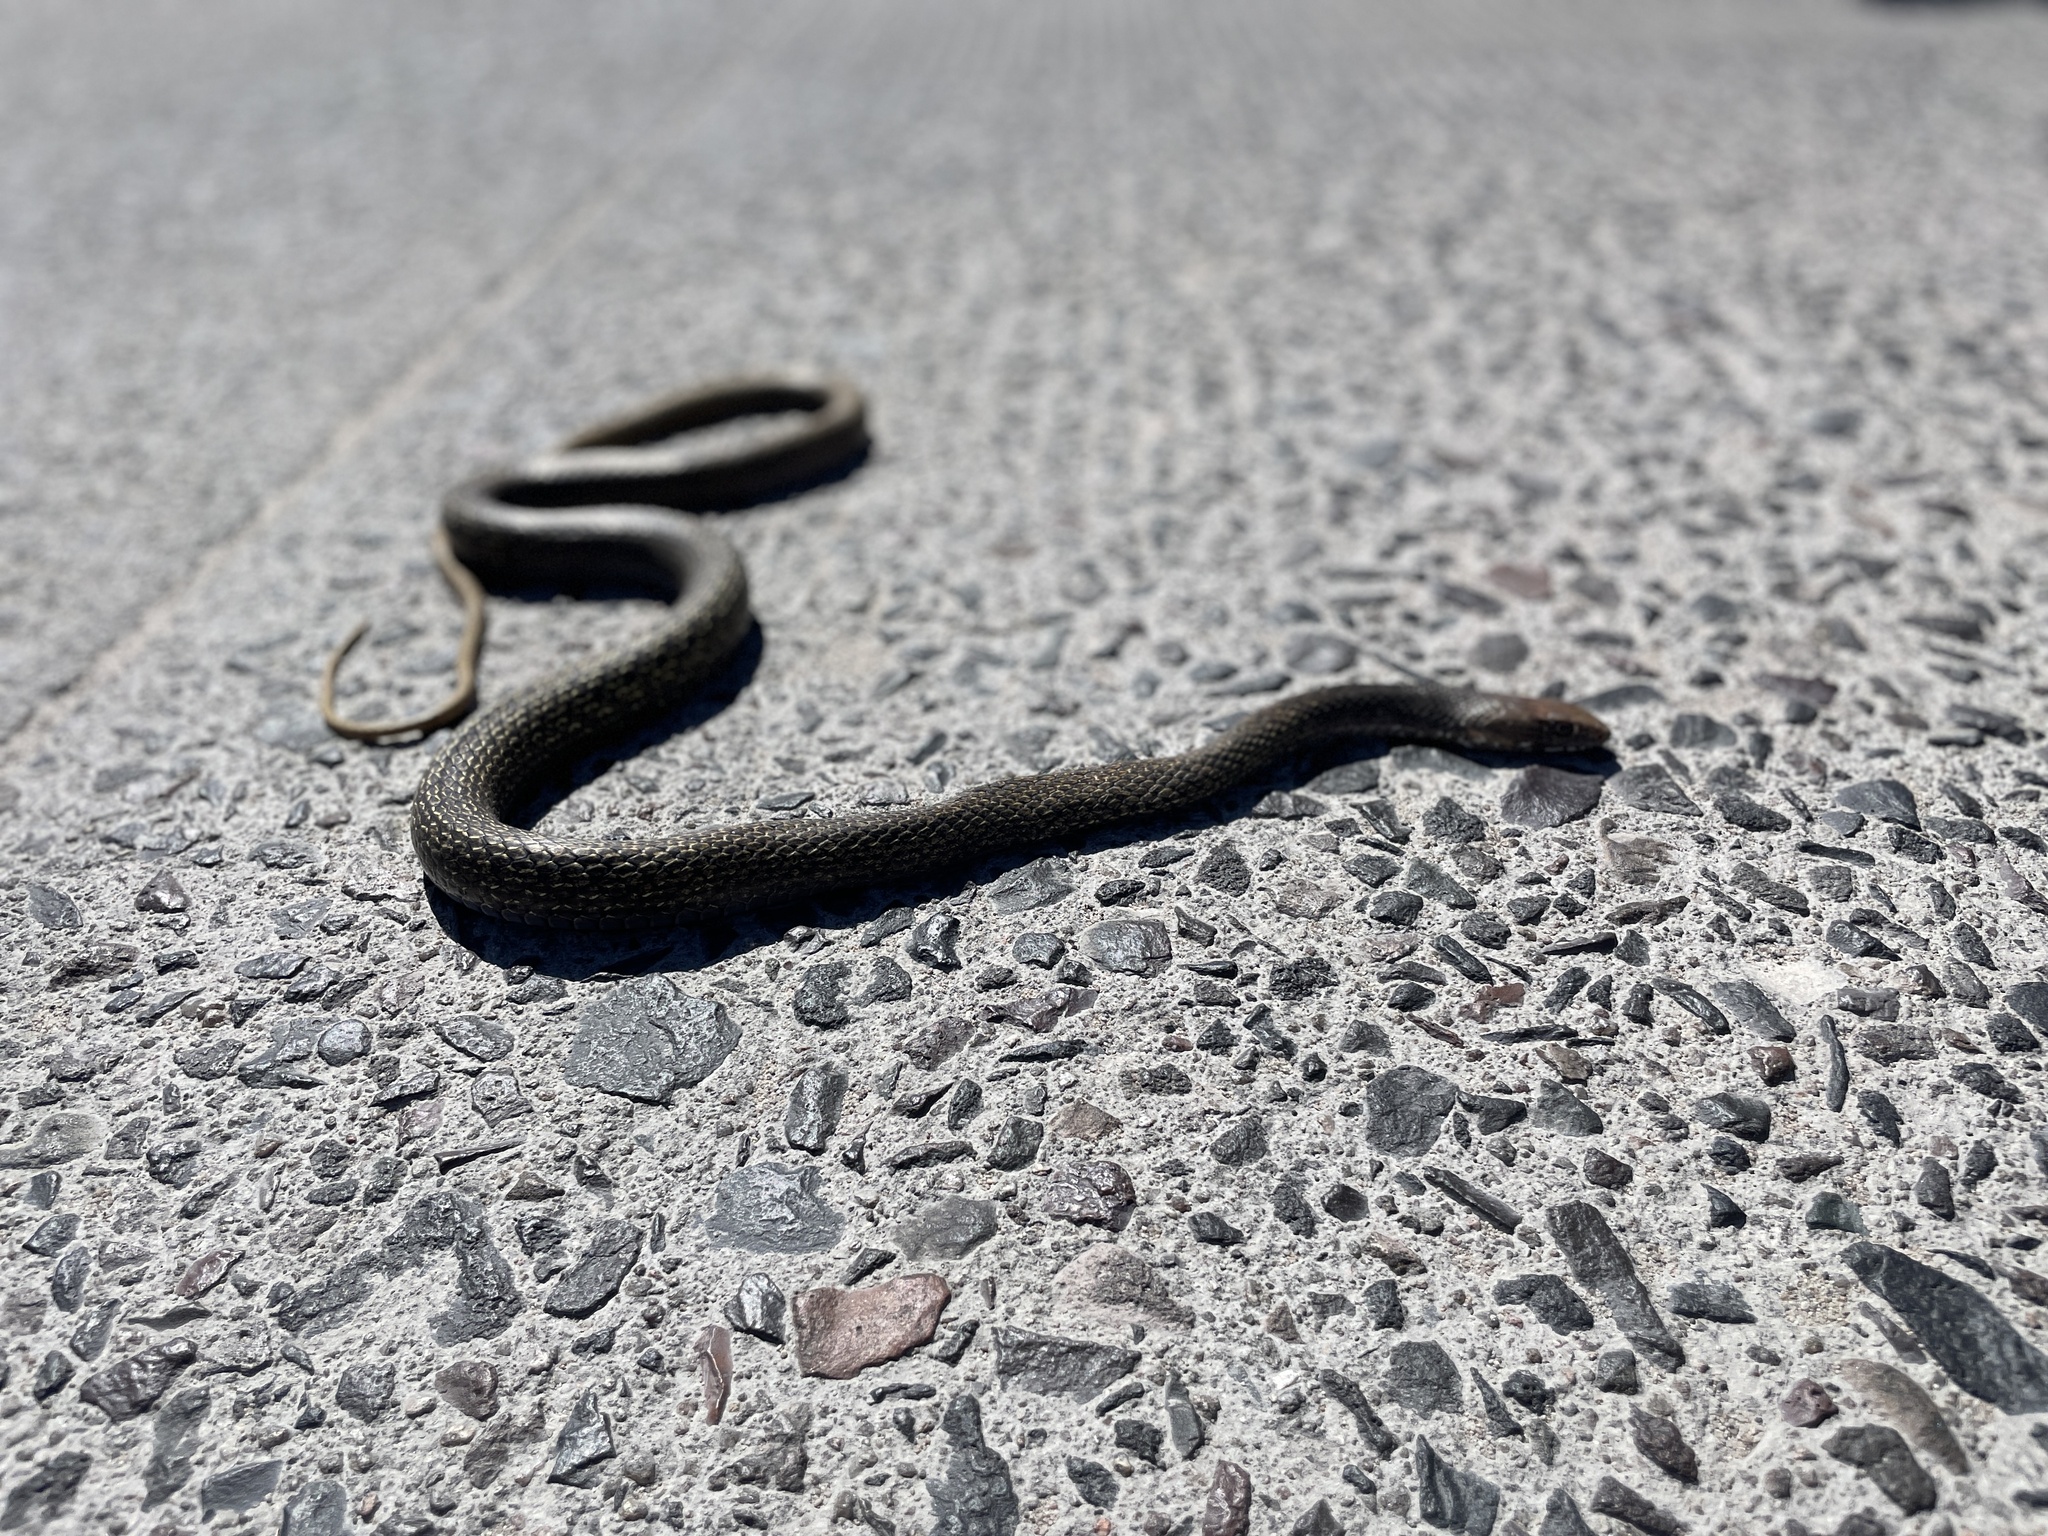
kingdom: Animalia
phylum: Chordata
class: Squamata
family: Colubridae
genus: Masticophis
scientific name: Masticophis fuliginosus
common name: Baja california coachwhip
